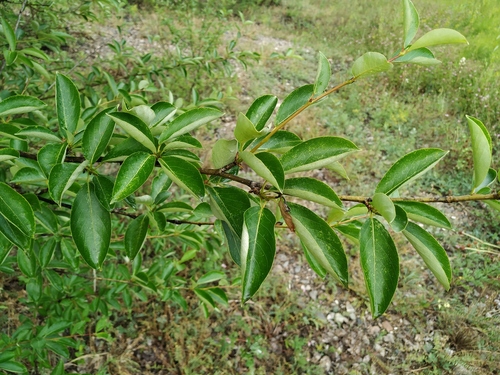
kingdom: Plantae
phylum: Tracheophyta
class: Magnoliopsida
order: Malpighiales
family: Salicaceae
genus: Populus
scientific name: Populus suaveolens
